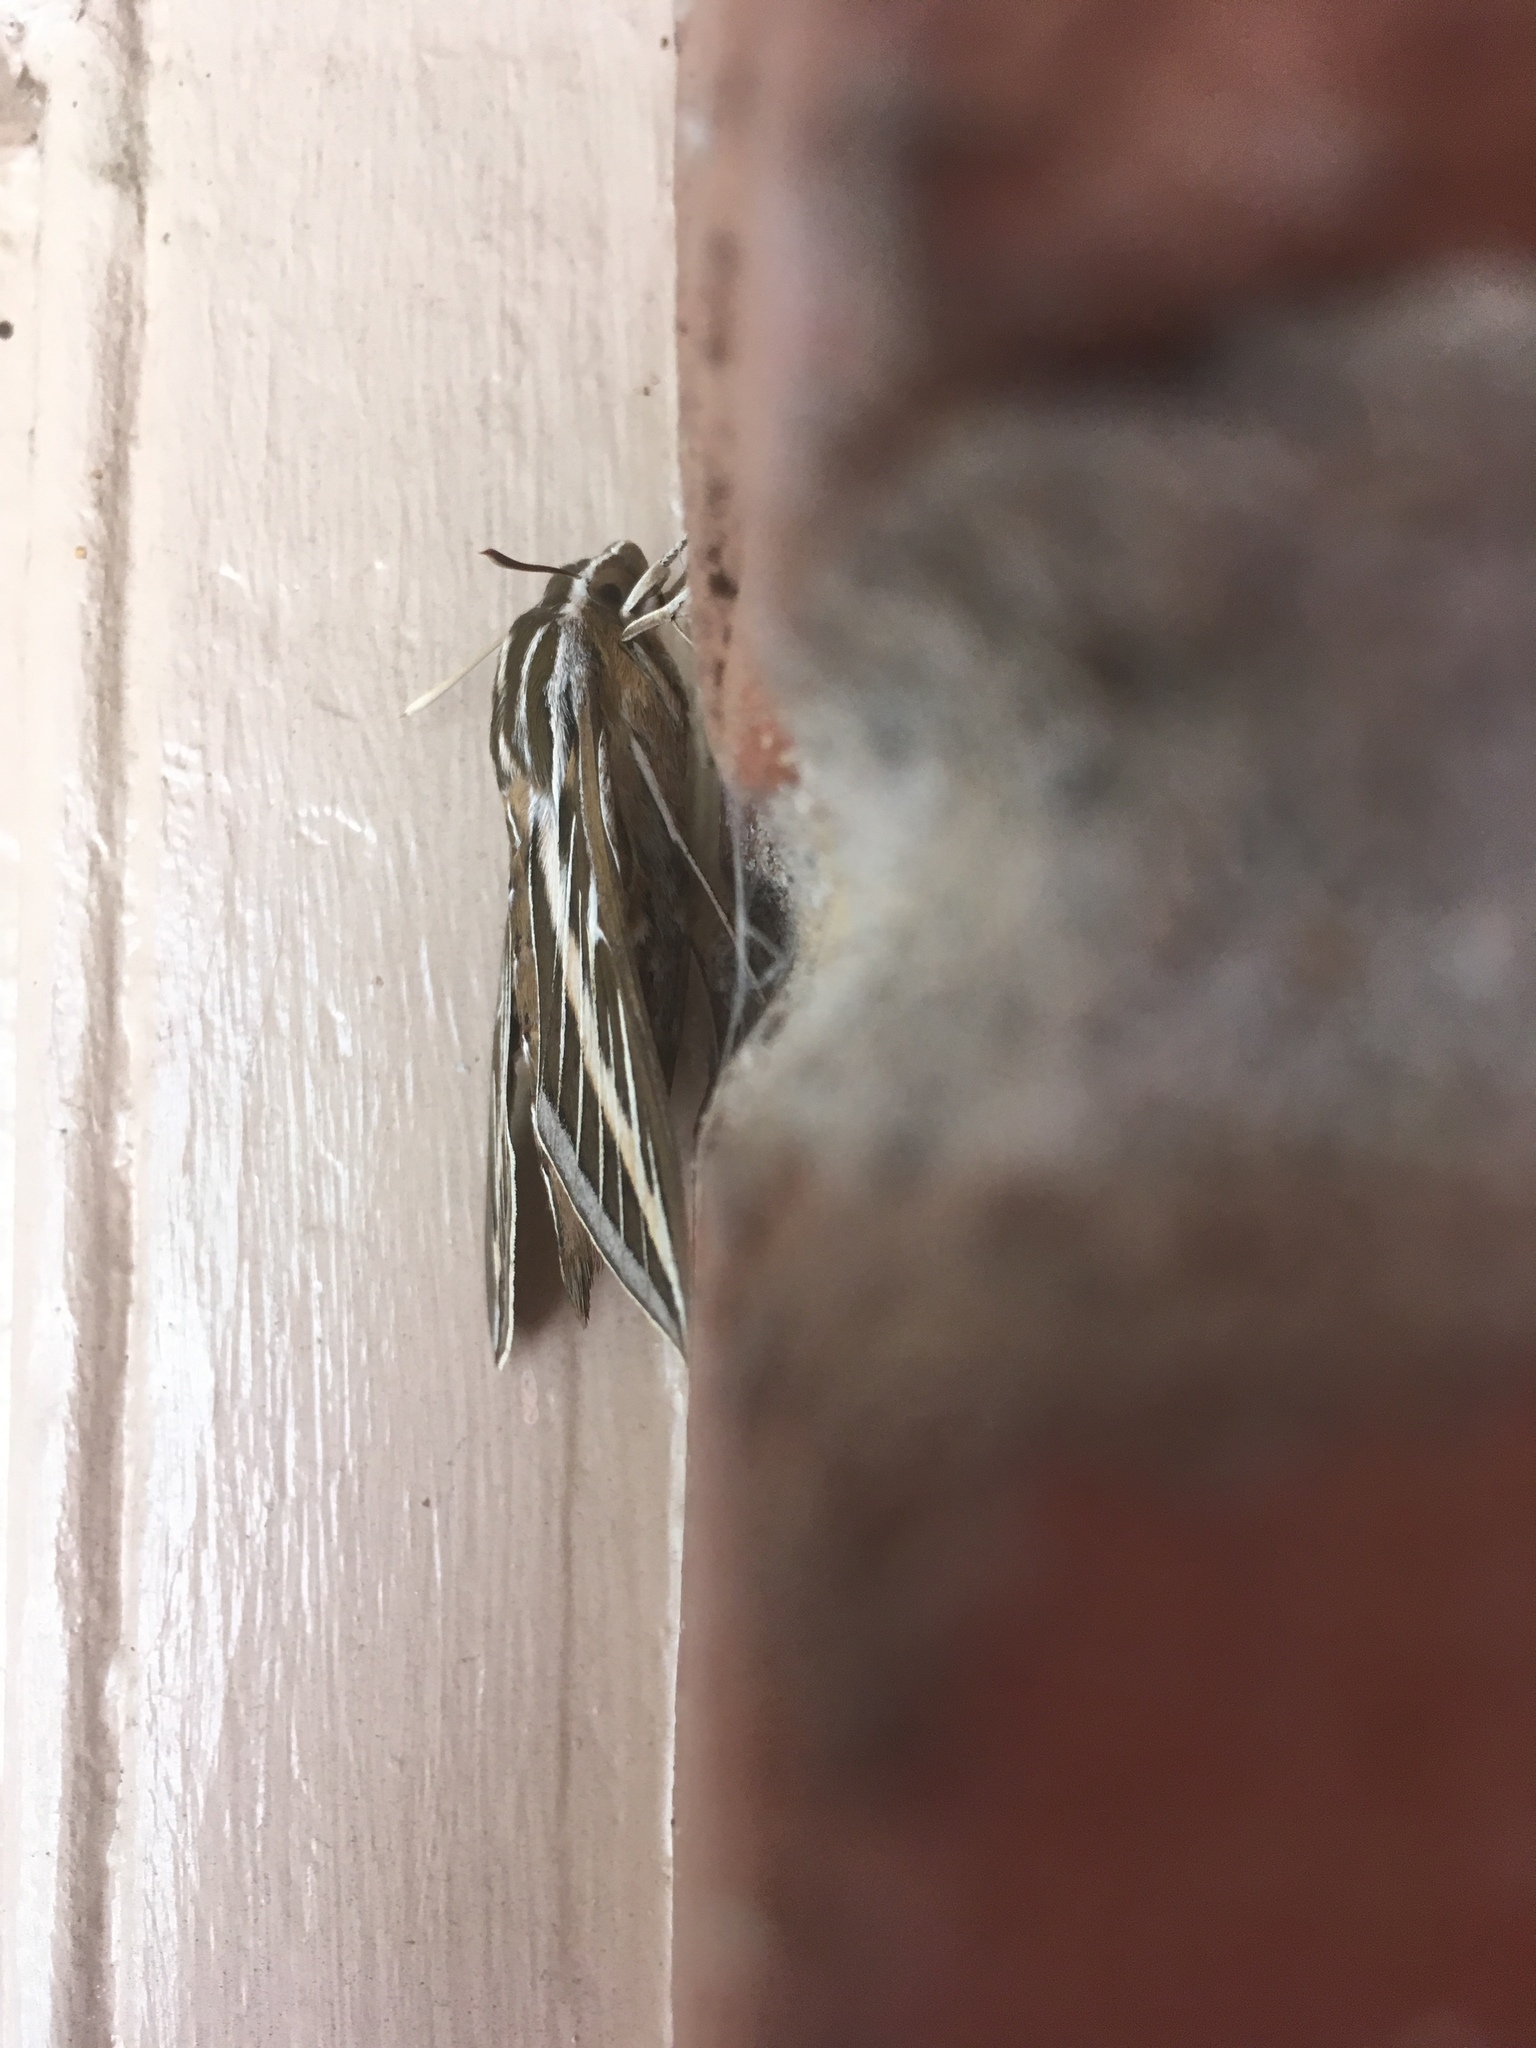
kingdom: Animalia
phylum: Arthropoda
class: Insecta
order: Lepidoptera
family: Sphingidae
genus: Hyles
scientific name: Hyles lineata
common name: White-lined sphinx
